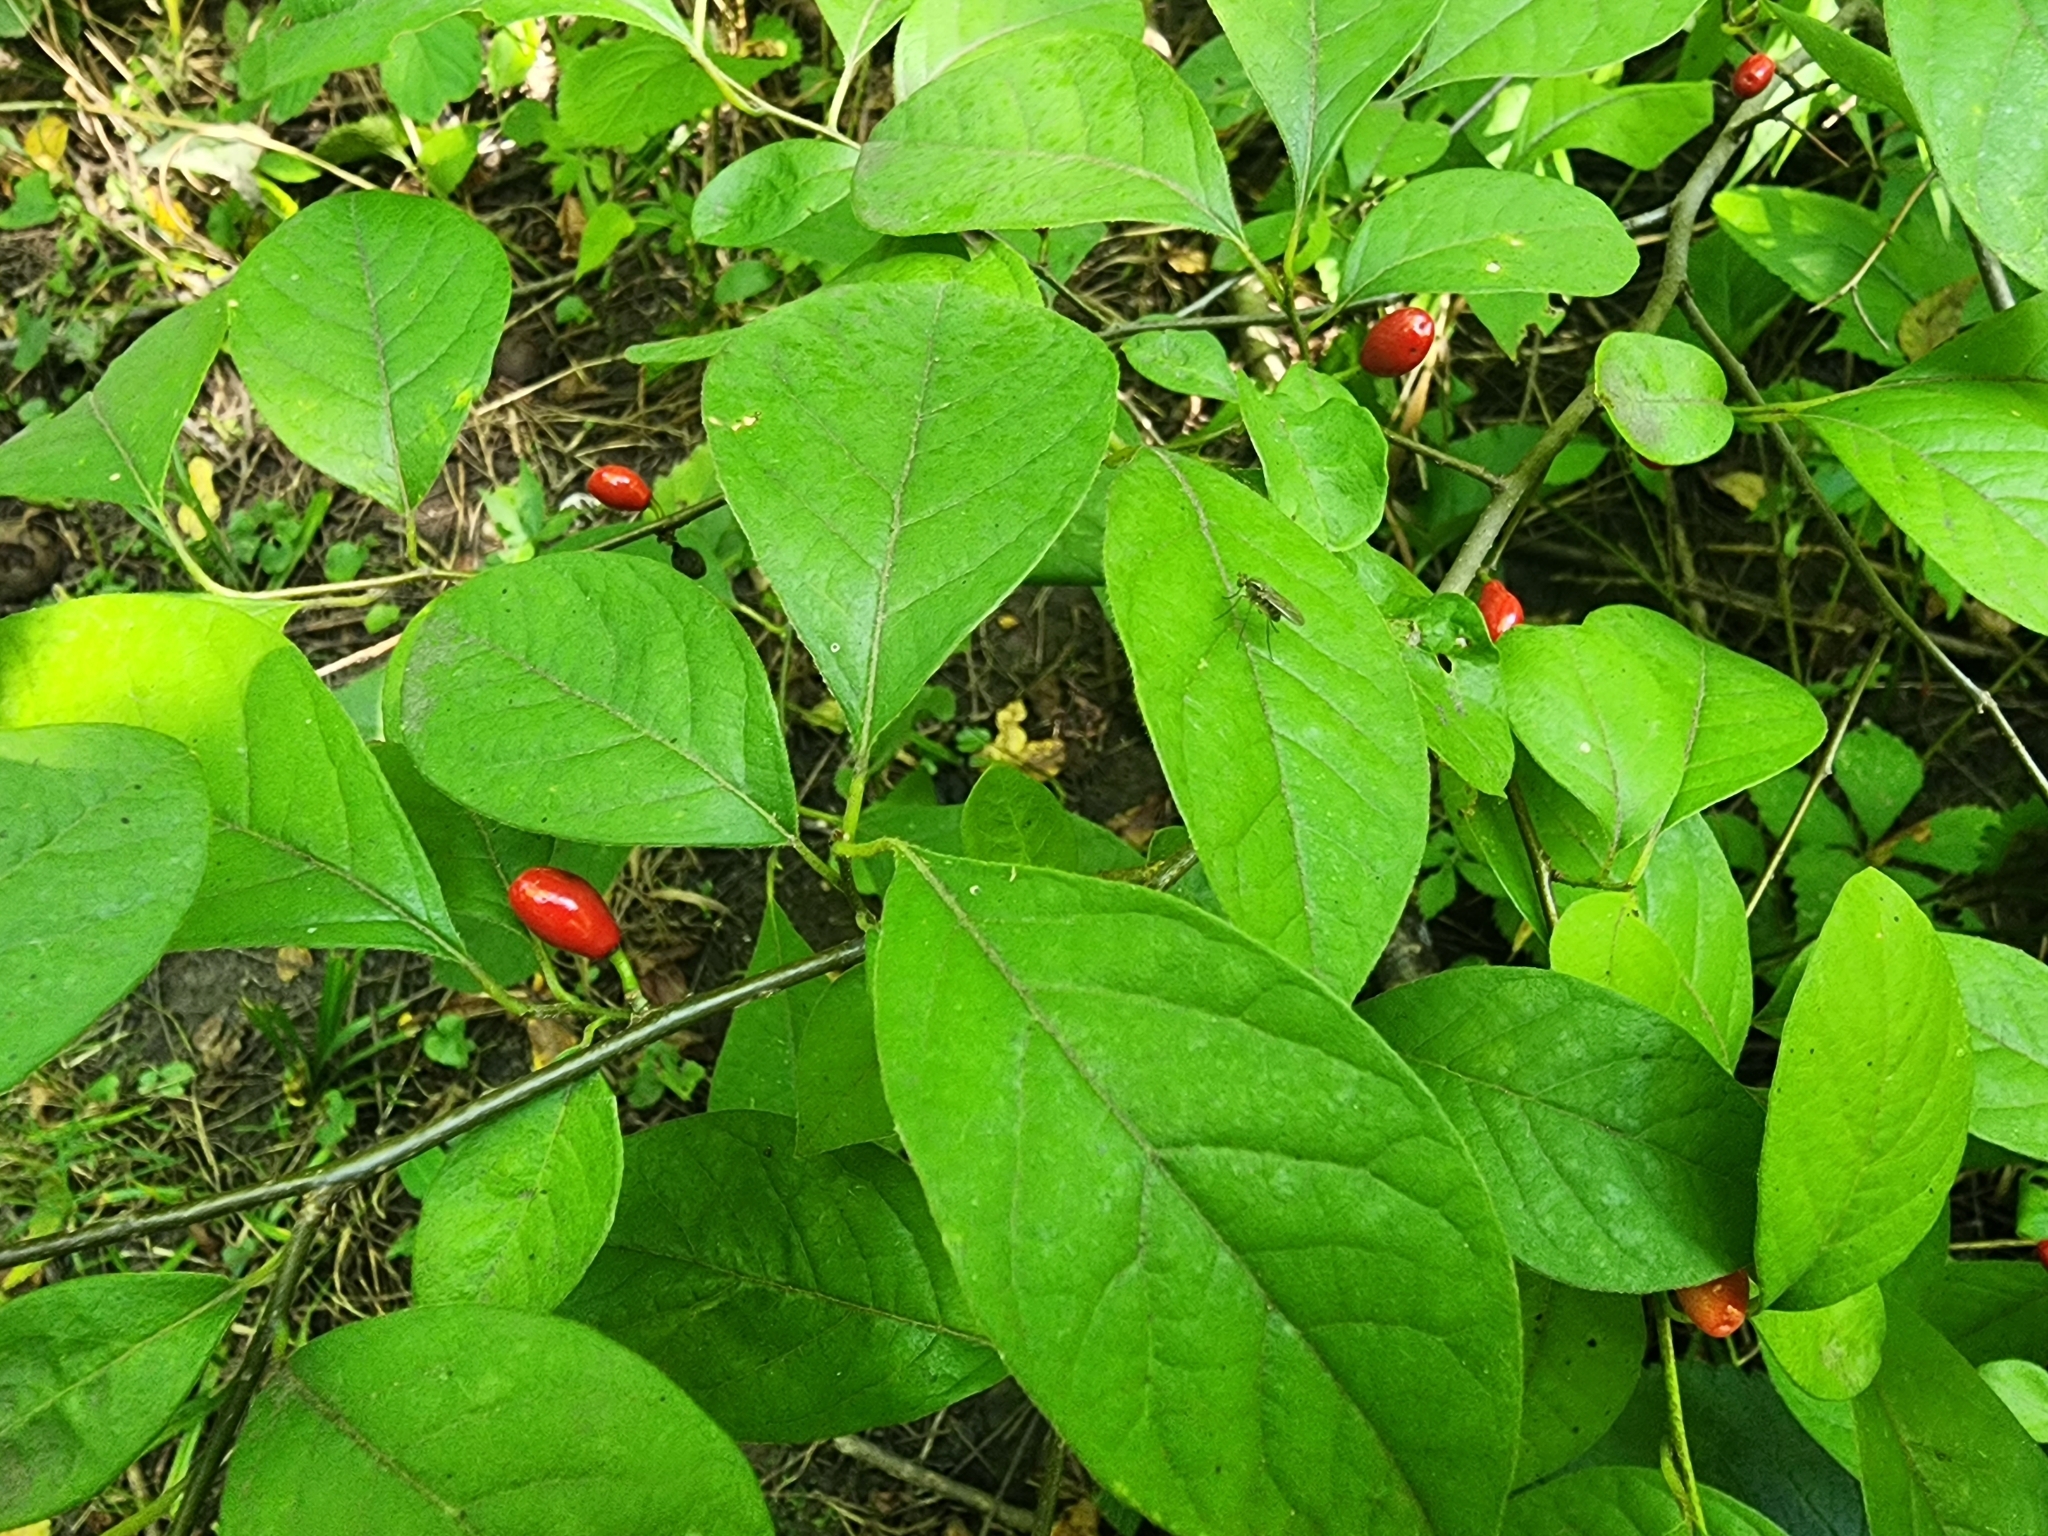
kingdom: Plantae
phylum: Tracheophyta
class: Magnoliopsida
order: Laurales
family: Lauraceae
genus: Lindera
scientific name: Lindera benzoin
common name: Spicebush
